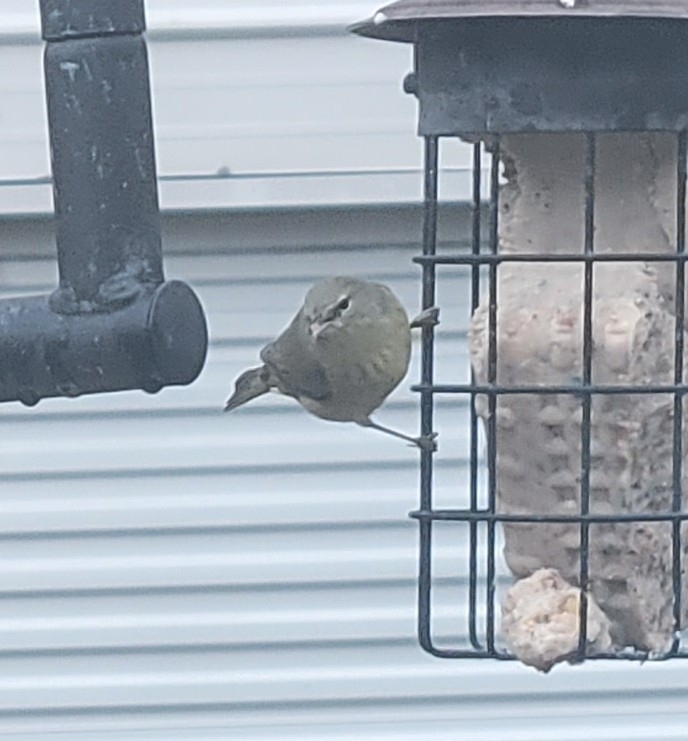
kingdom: Animalia
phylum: Chordata
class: Aves
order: Passeriformes
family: Parulidae
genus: Leiothlypis
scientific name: Leiothlypis celata
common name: Orange-crowned warbler
